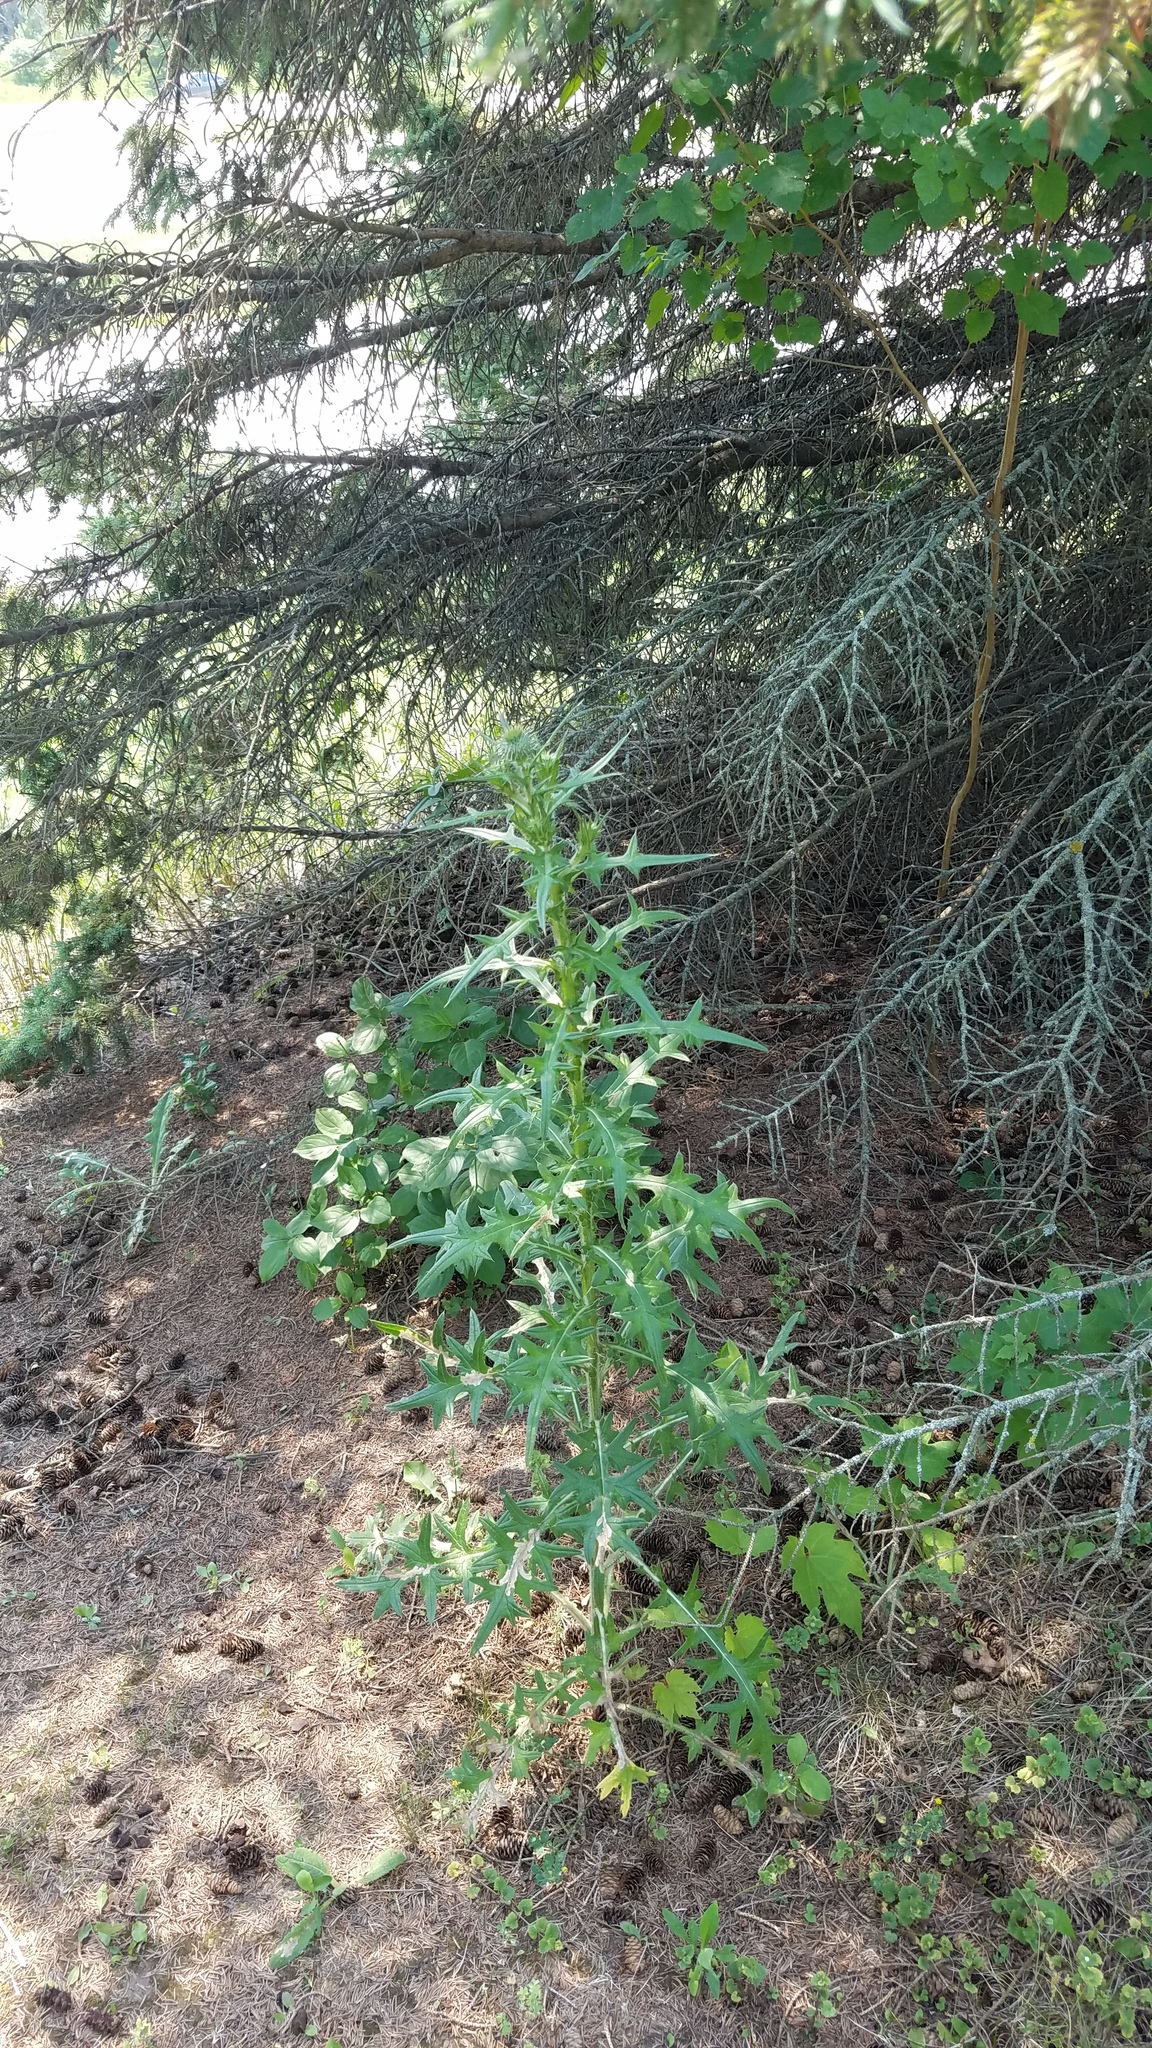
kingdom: Plantae
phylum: Tracheophyta
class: Magnoliopsida
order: Asterales
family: Asteraceae
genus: Cirsium
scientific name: Cirsium vulgare
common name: Bull thistle
